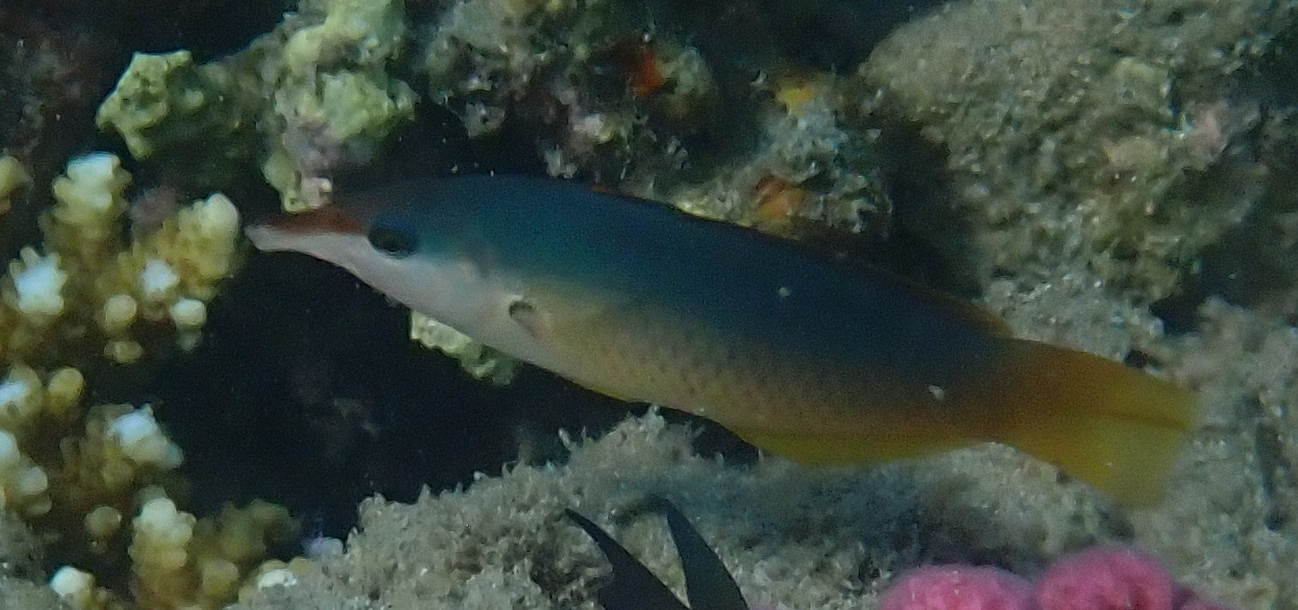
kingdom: Animalia
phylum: Chordata
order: Perciformes
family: Labridae
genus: Gomphosus
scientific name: Gomphosus klunzingeri
